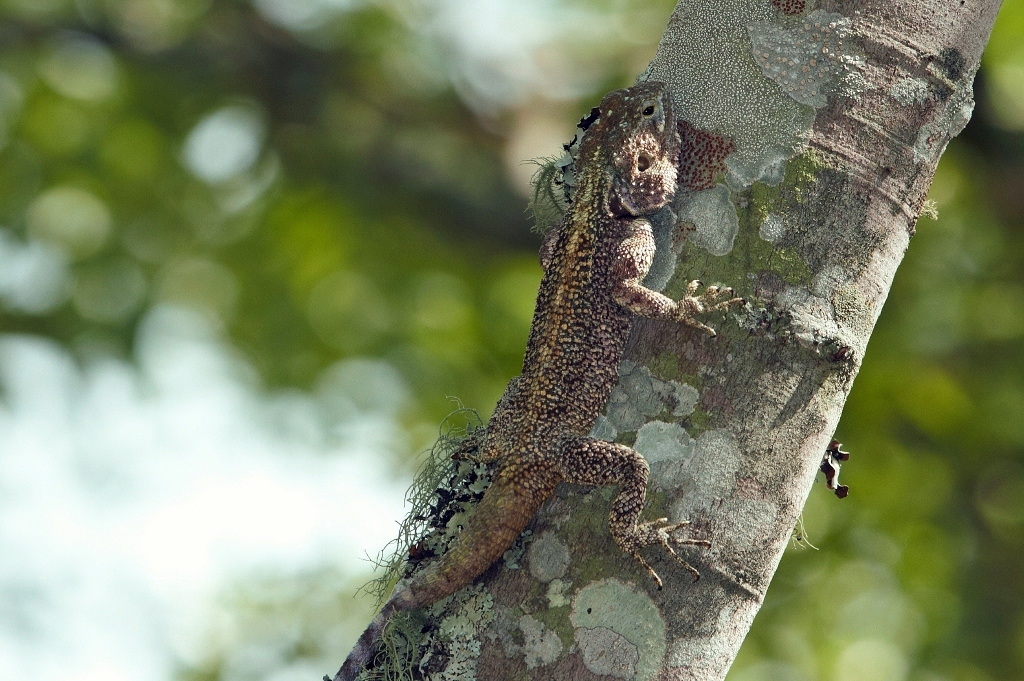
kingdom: Animalia
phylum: Chordata
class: Squamata
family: Agamidae
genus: Acanthocercus
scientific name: Acanthocercus atricollis
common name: Southern tree agama
